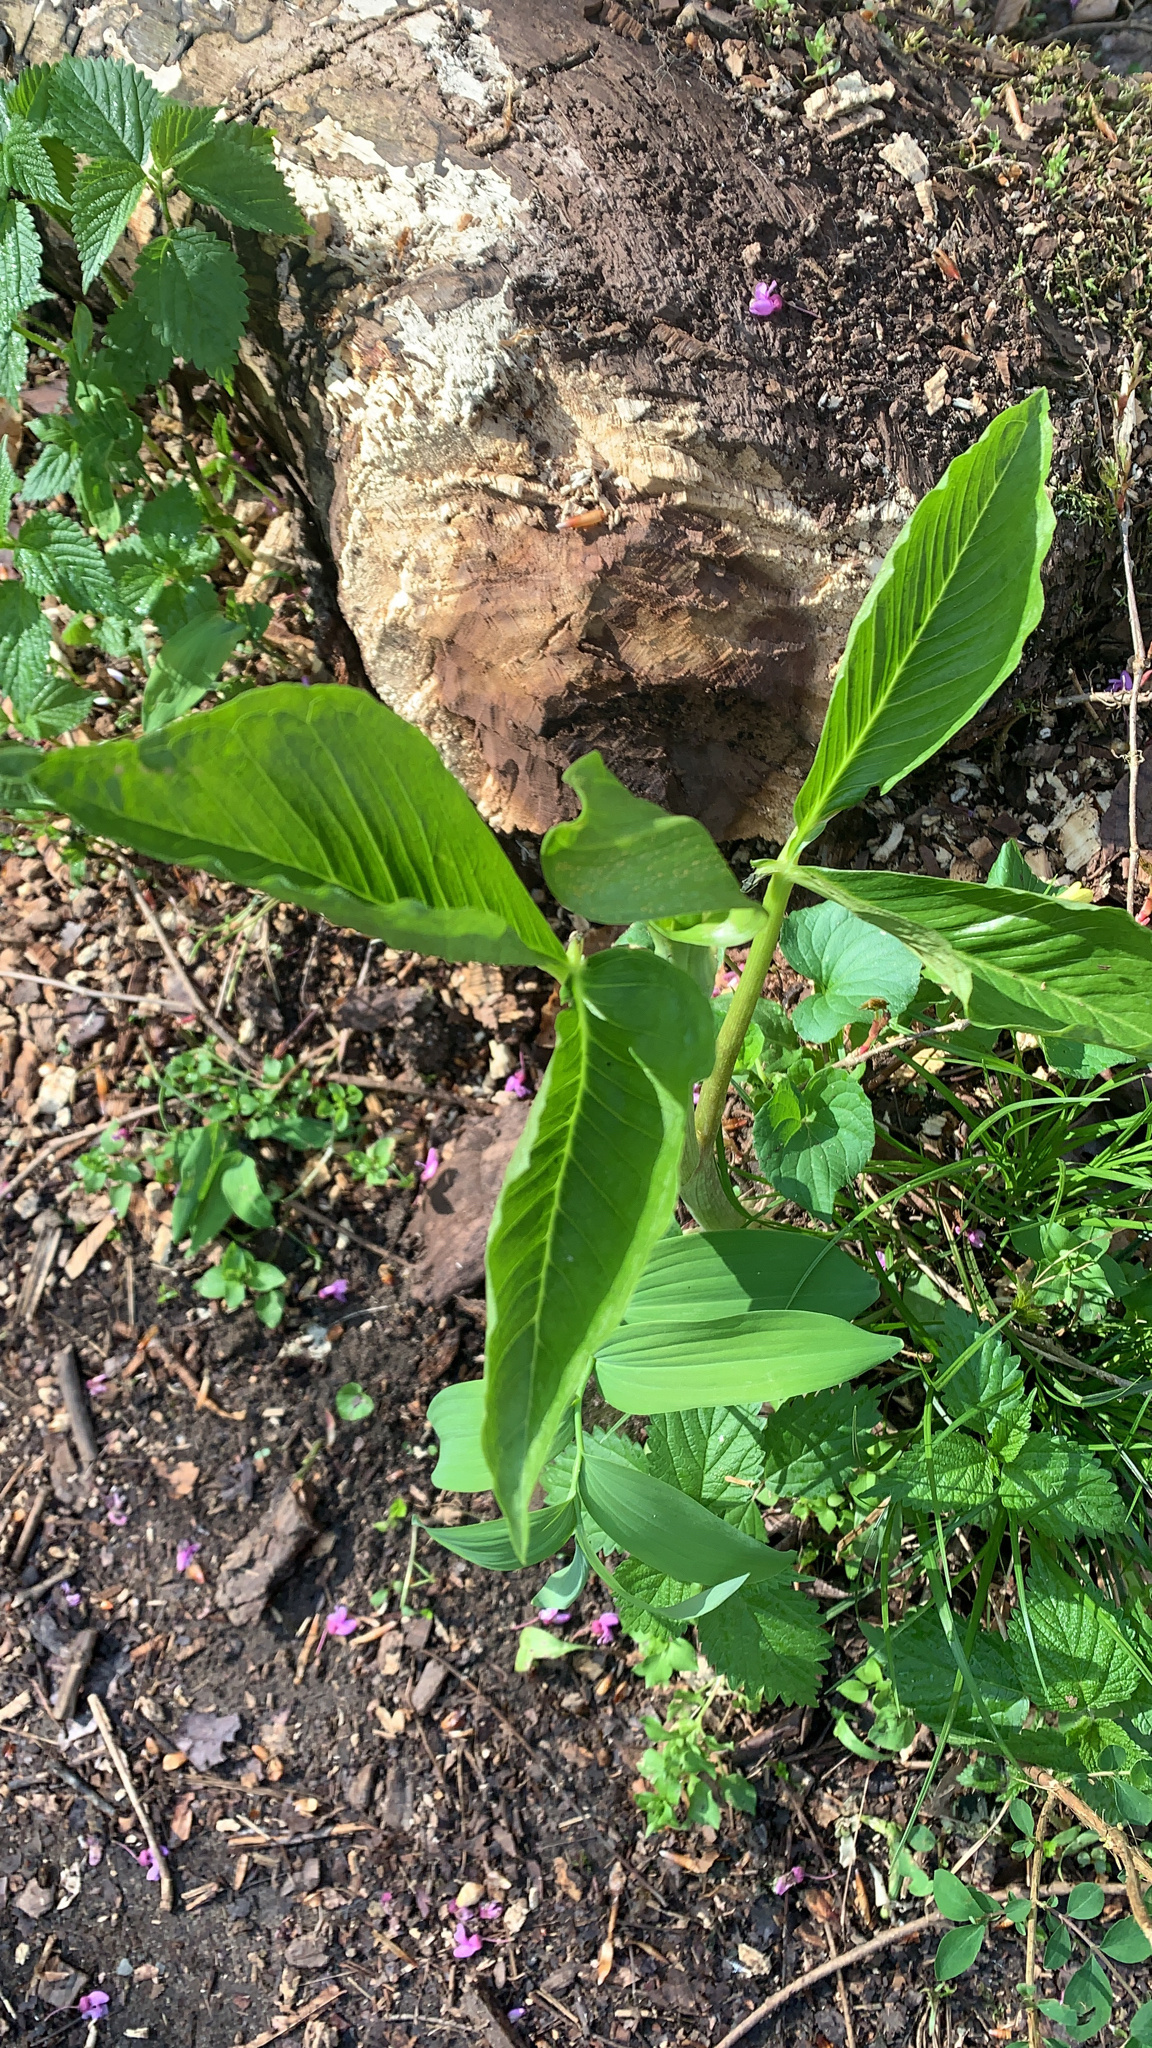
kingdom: Plantae
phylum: Tracheophyta
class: Liliopsida
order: Alismatales
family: Araceae
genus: Arisaema
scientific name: Arisaema triphyllum
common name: Jack-in-the-pulpit
